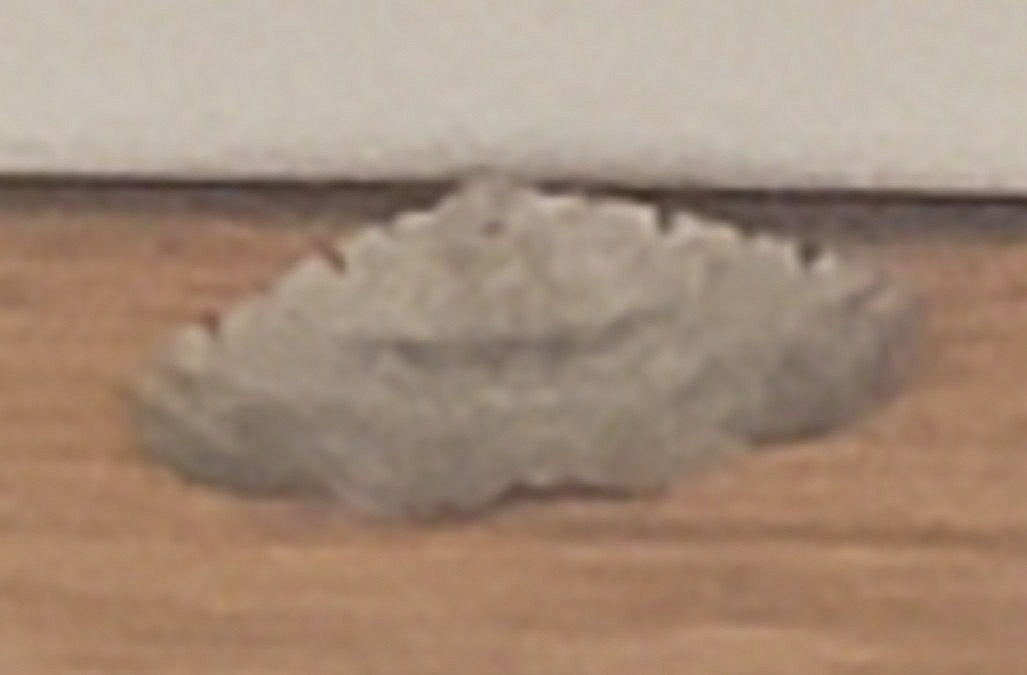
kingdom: Animalia
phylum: Arthropoda
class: Insecta
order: Lepidoptera
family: Erebidae
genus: Spiloloma
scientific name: Spiloloma lunilinea
